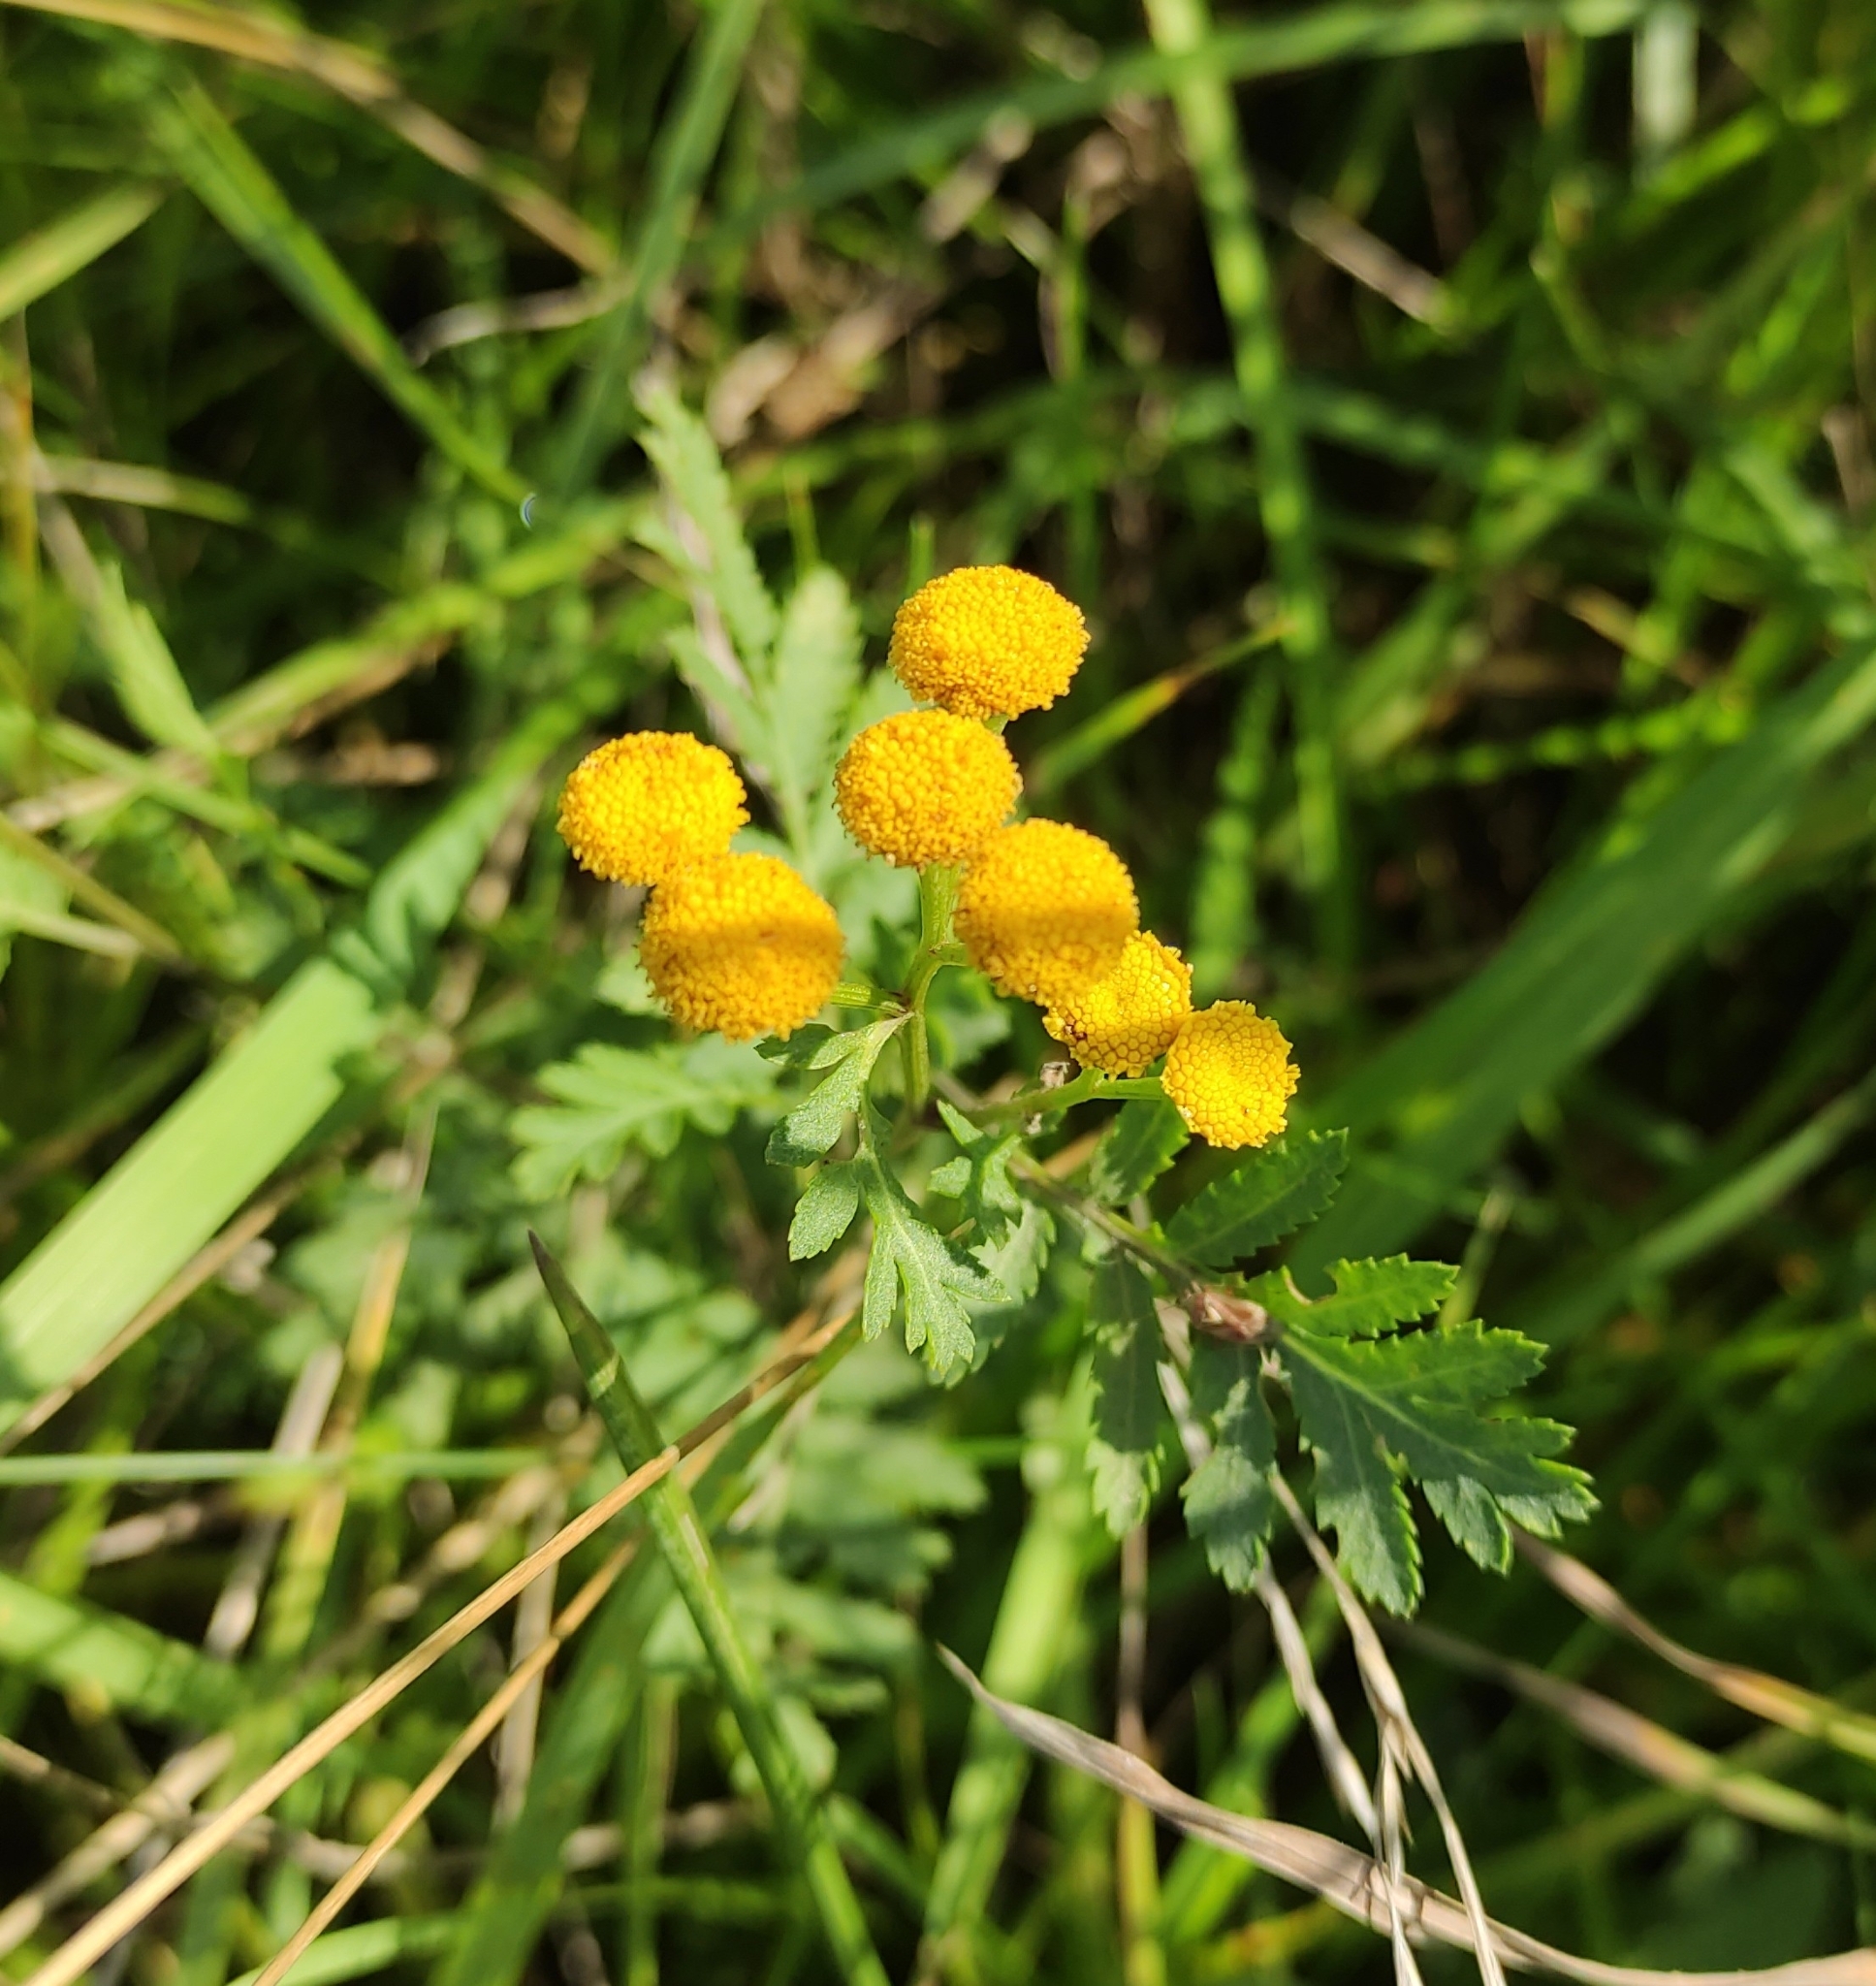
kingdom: Plantae
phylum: Tracheophyta
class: Magnoliopsida
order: Asterales
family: Asteraceae
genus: Tanacetum
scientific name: Tanacetum vulgare
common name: Common tansy
